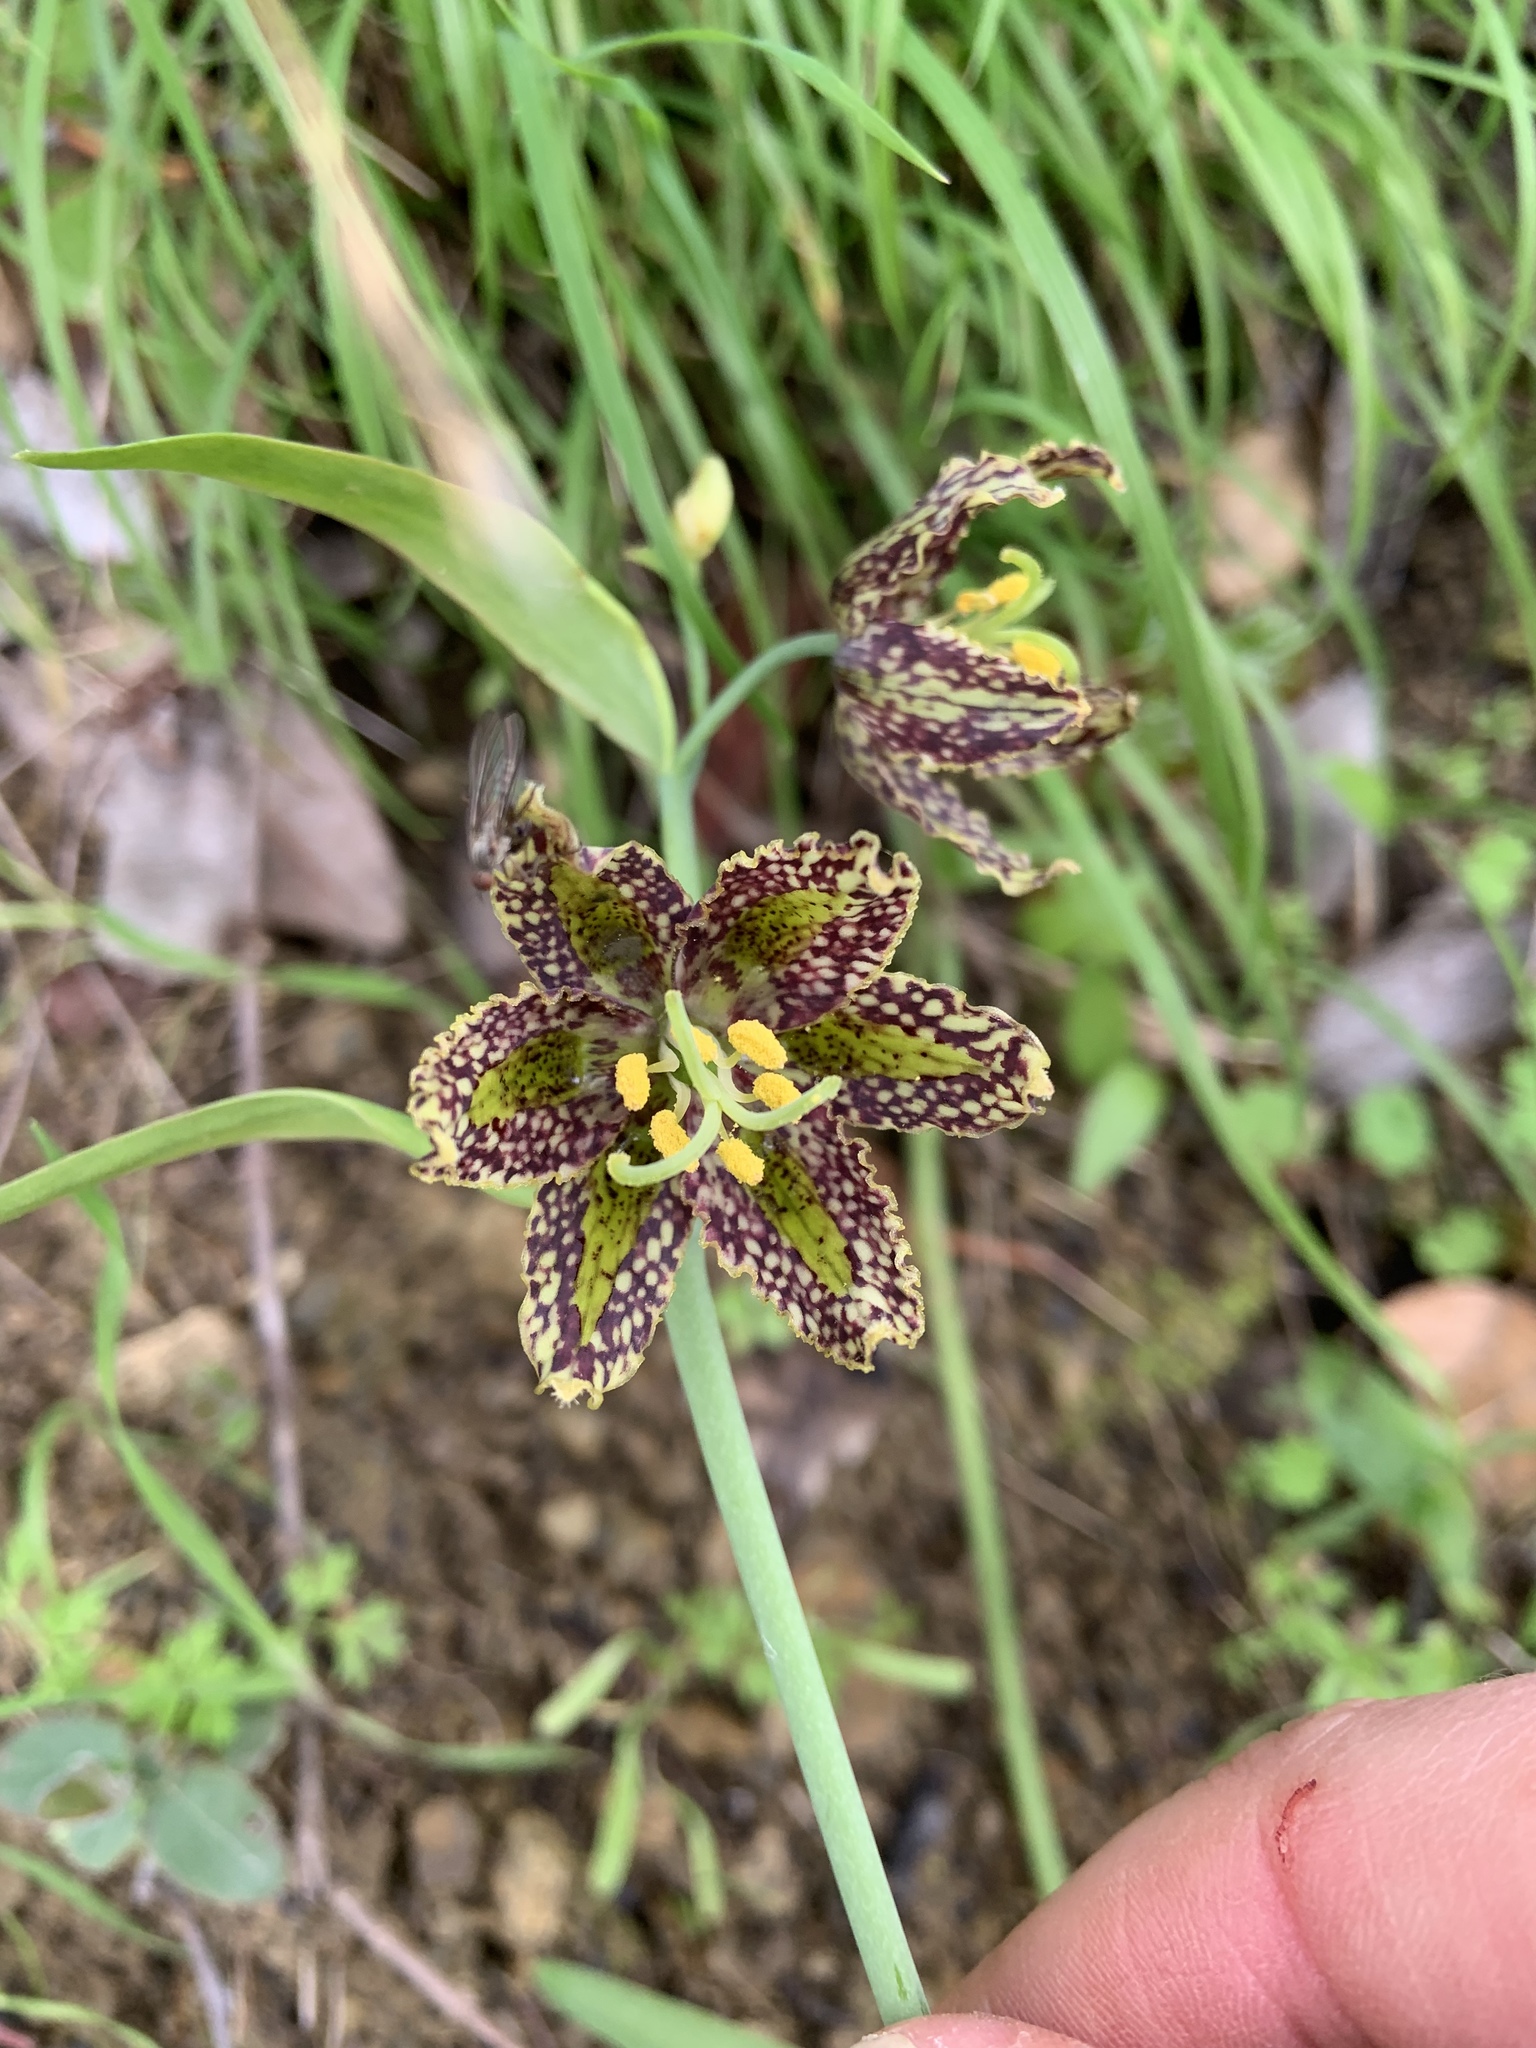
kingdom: Plantae
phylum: Tracheophyta
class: Liliopsida
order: Liliales
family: Liliaceae
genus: Fritillaria
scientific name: Fritillaria affinis
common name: Ojai fritillary
